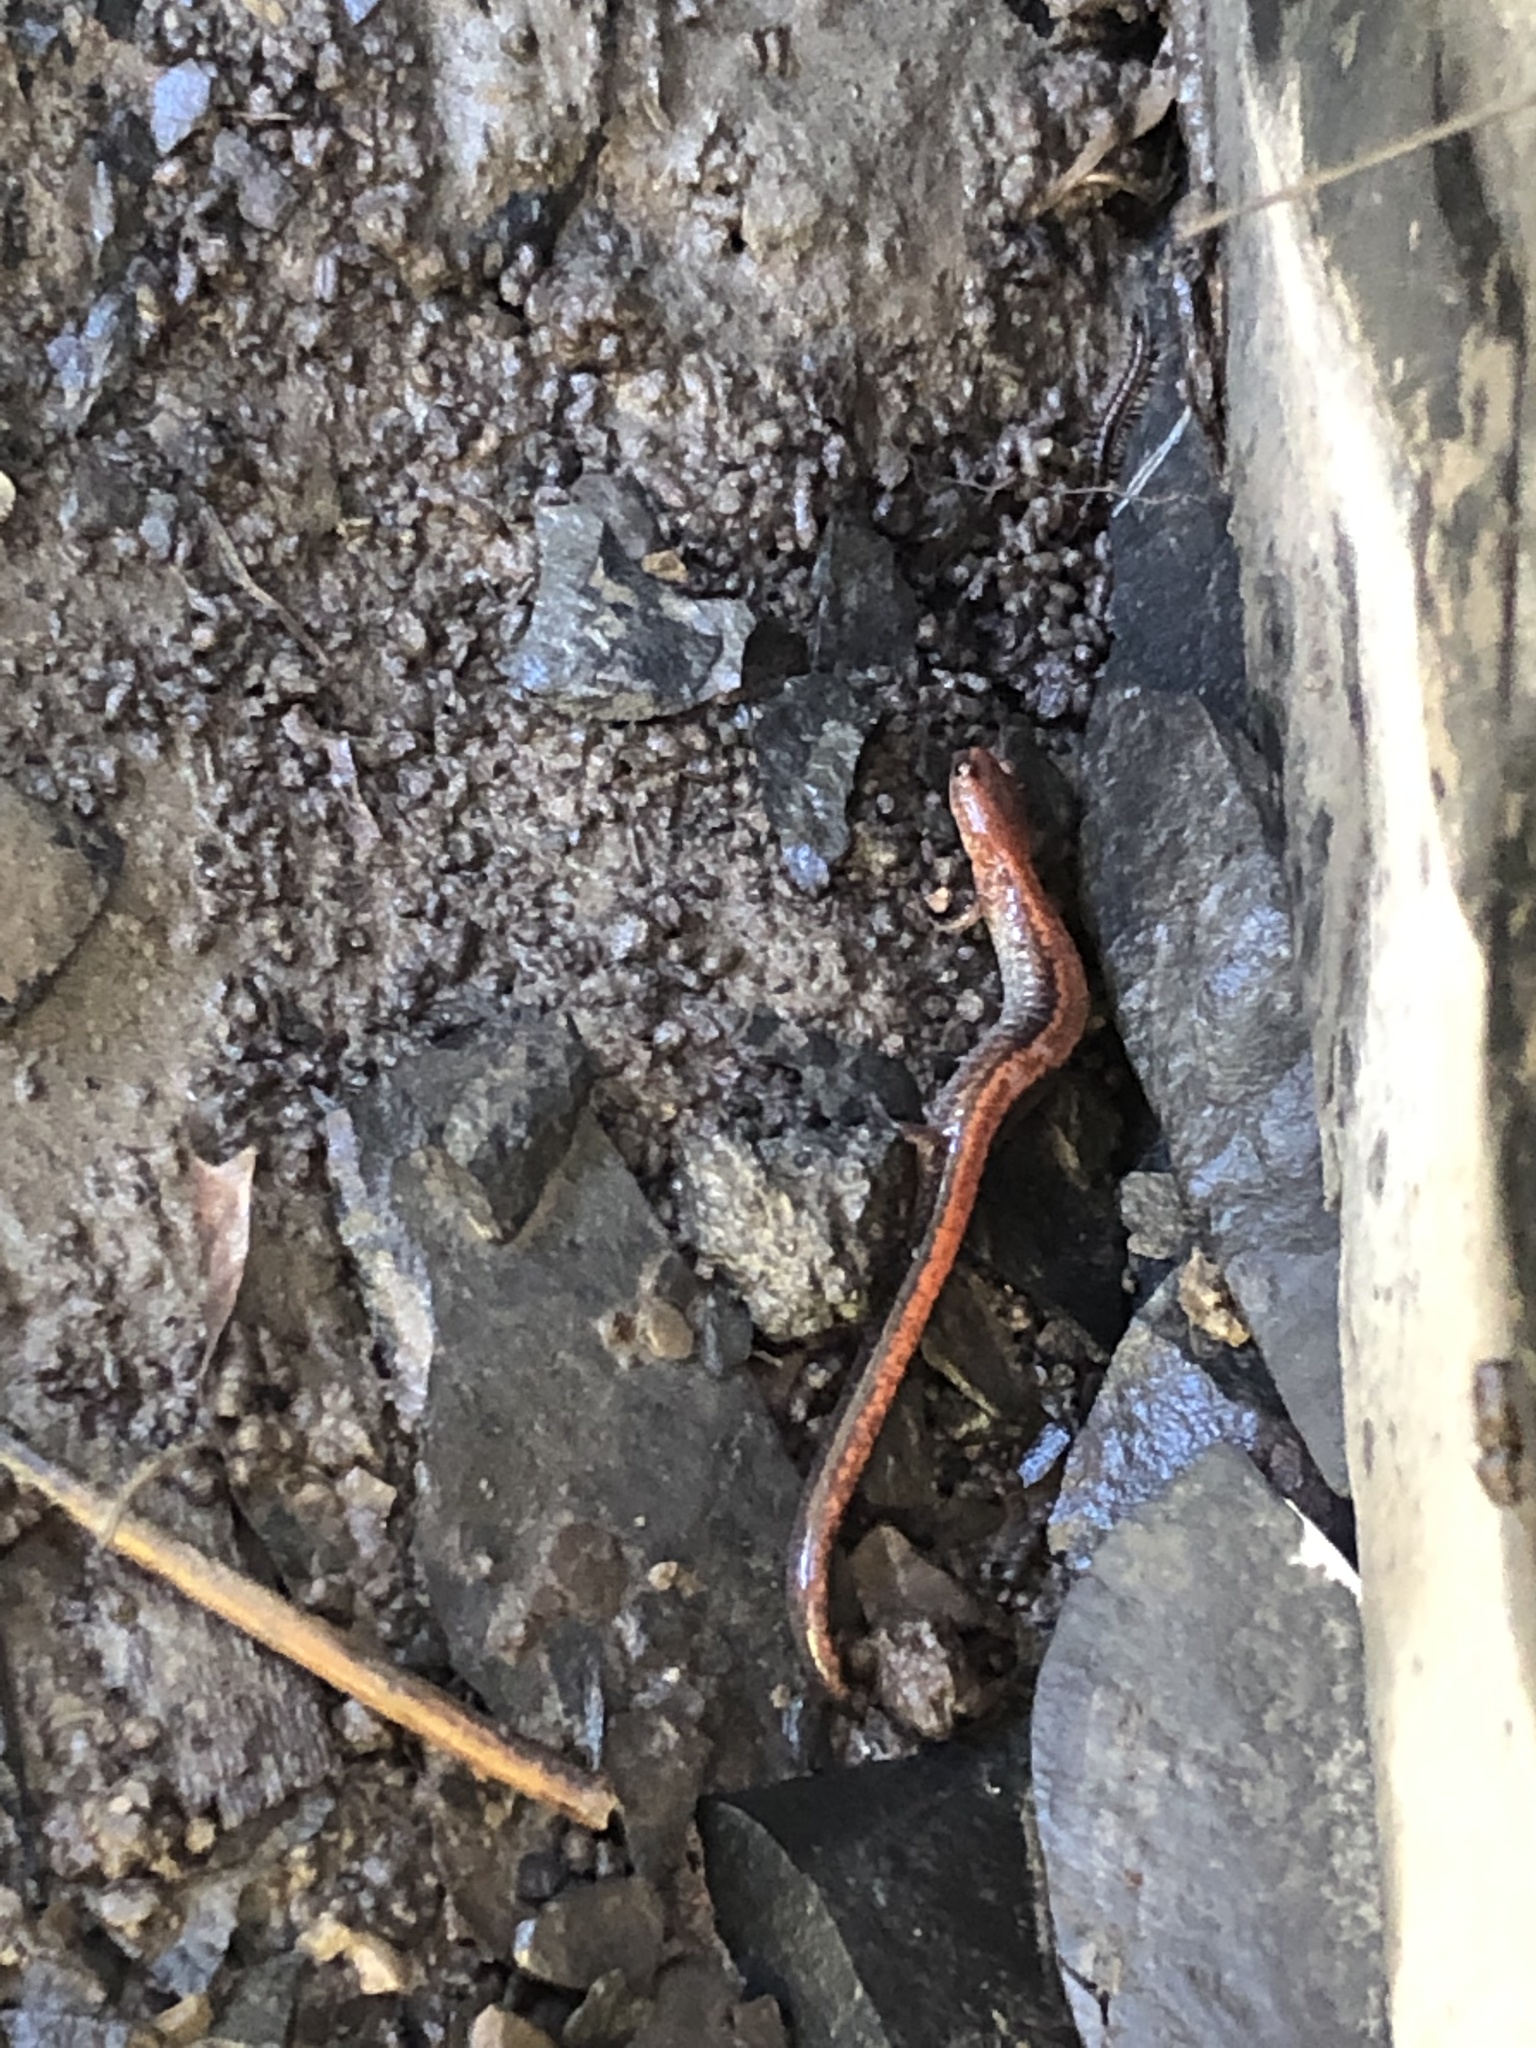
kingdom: Animalia
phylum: Chordata
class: Amphibia
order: Caudata
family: Plethodontidae
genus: Plethodon
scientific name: Plethodon cinereus
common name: Redback salamander
